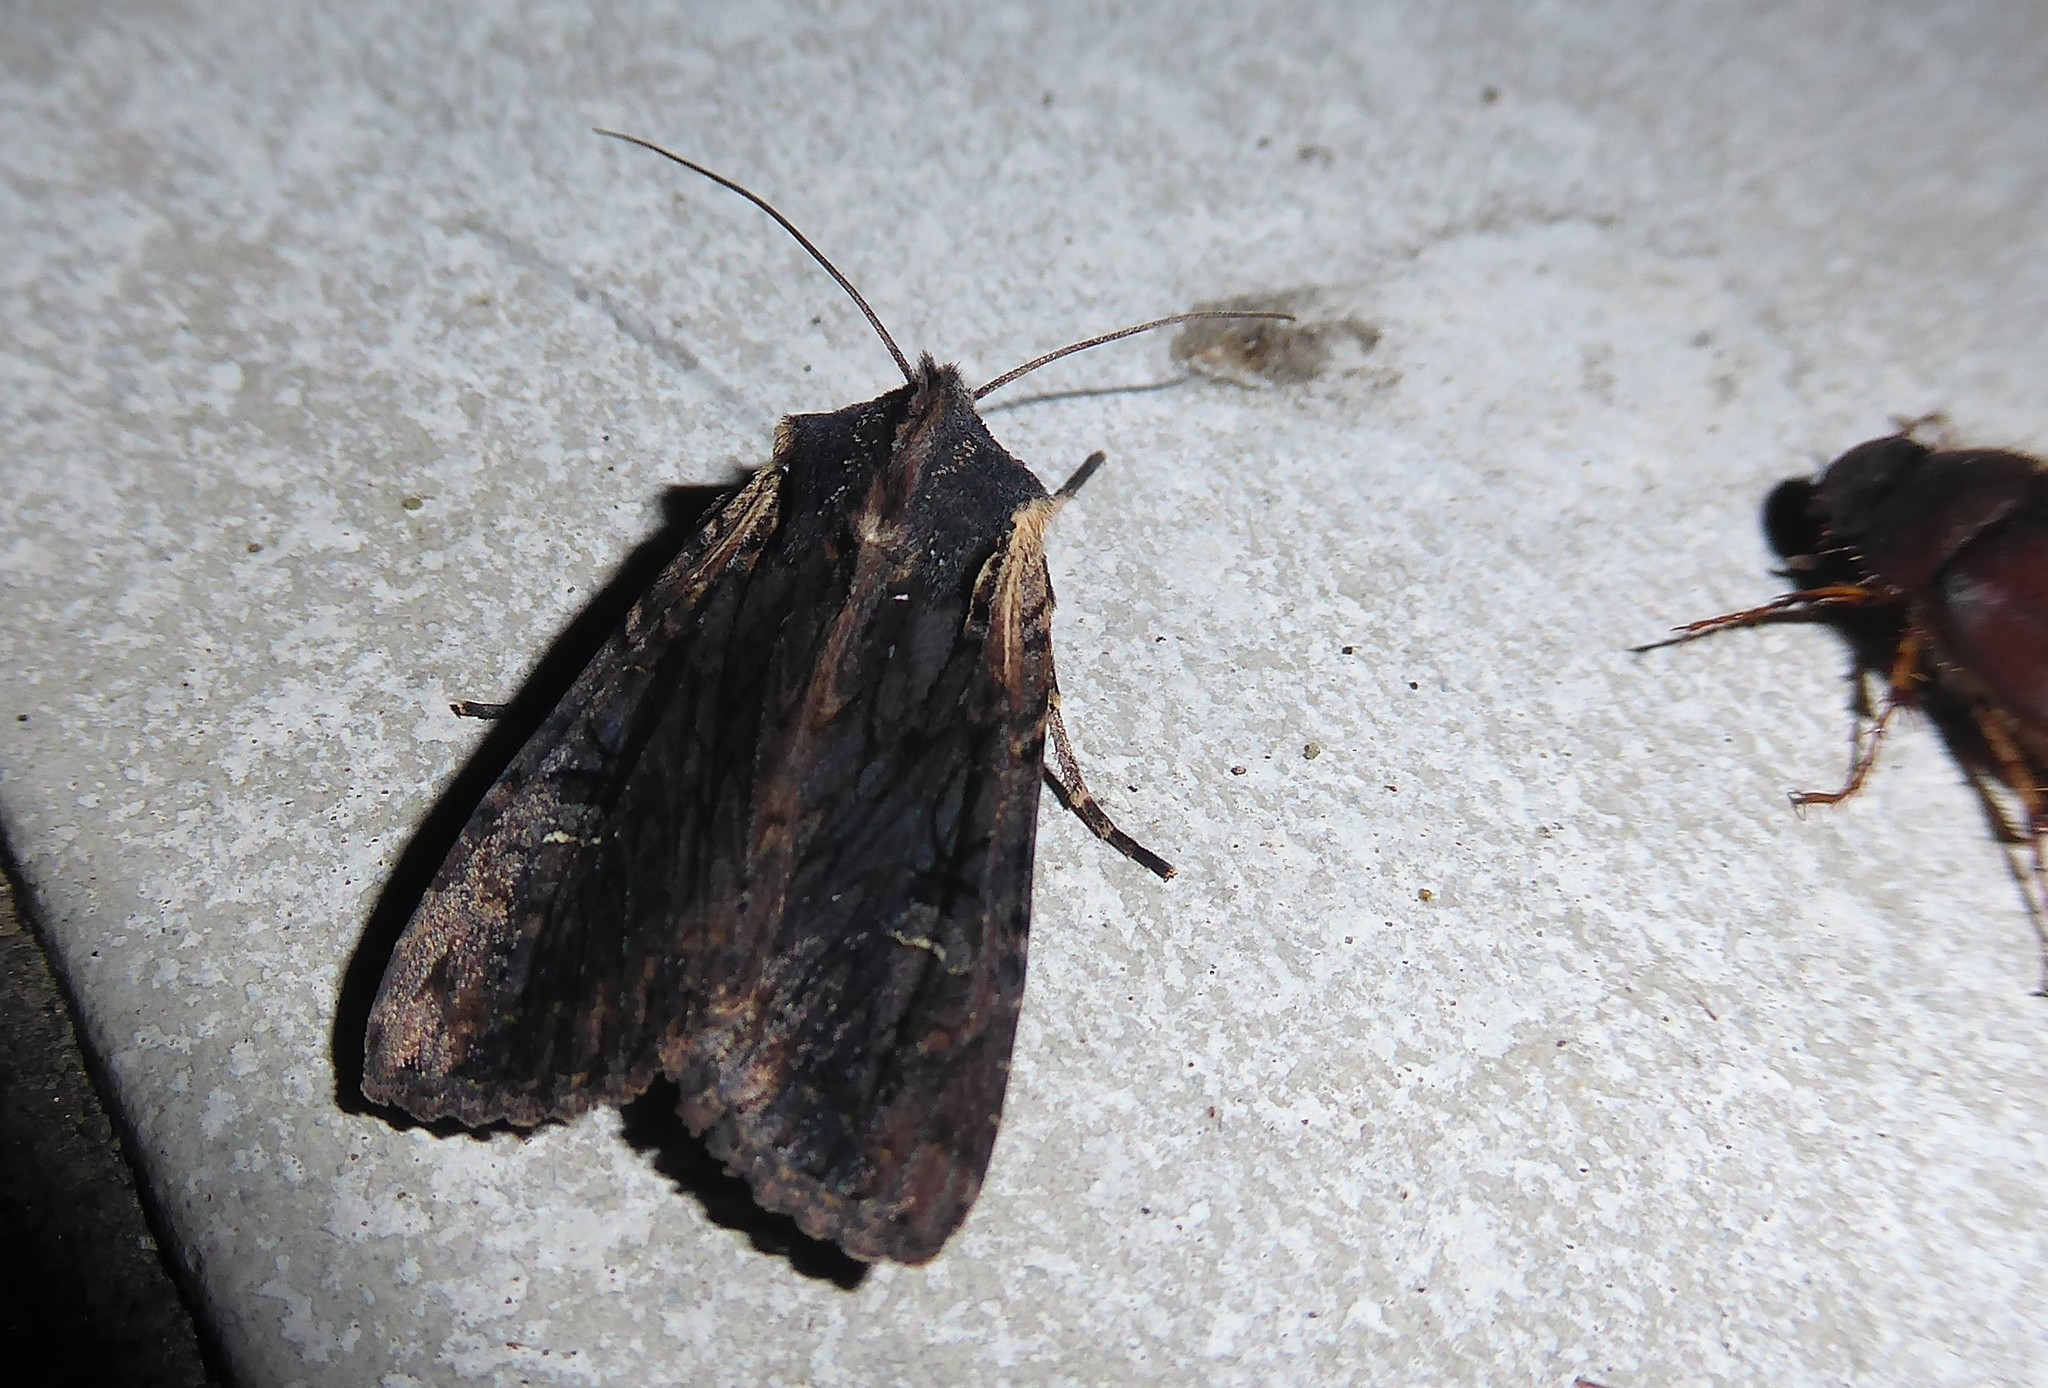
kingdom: Animalia
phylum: Arthropoda
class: Insecta
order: Lepidoptera
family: Noctuidae
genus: Ichneutica
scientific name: Ichneutica omoplaca
